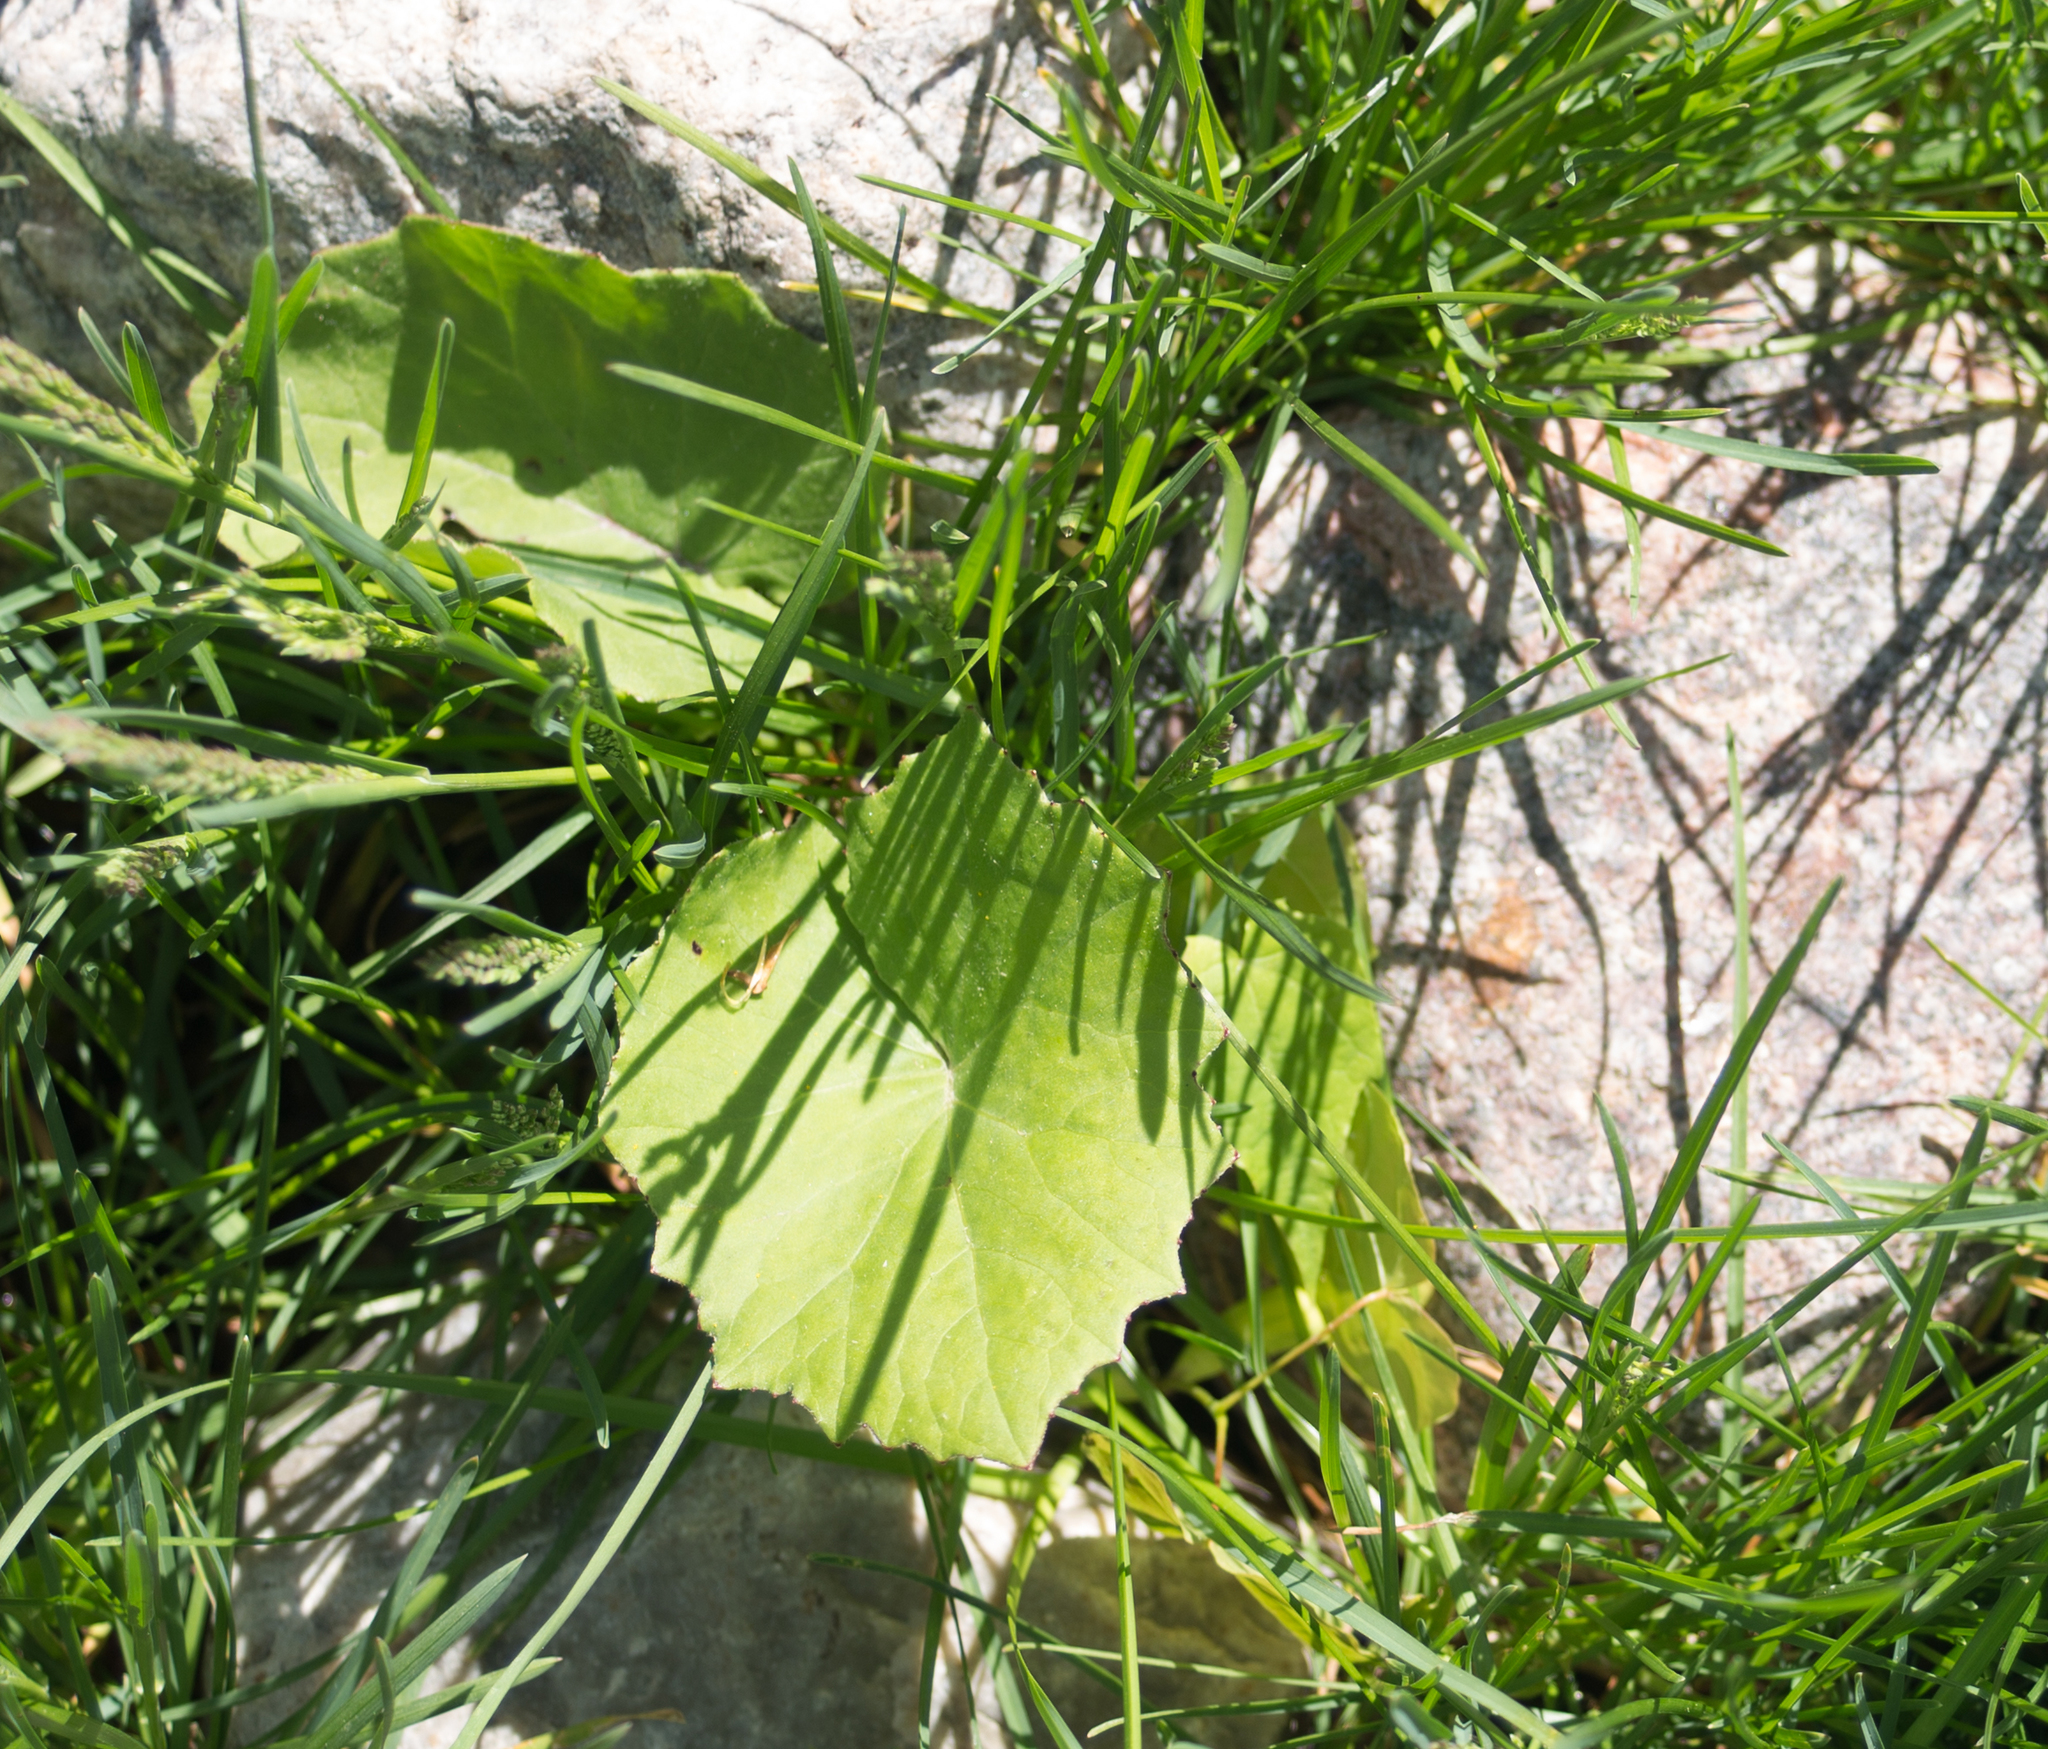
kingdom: Plantae
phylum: Tracheophyta
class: Magnoliopsida
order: Asterales
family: Asteraceae
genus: Tussilago
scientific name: Tussilago farfara
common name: Coltsfoot
